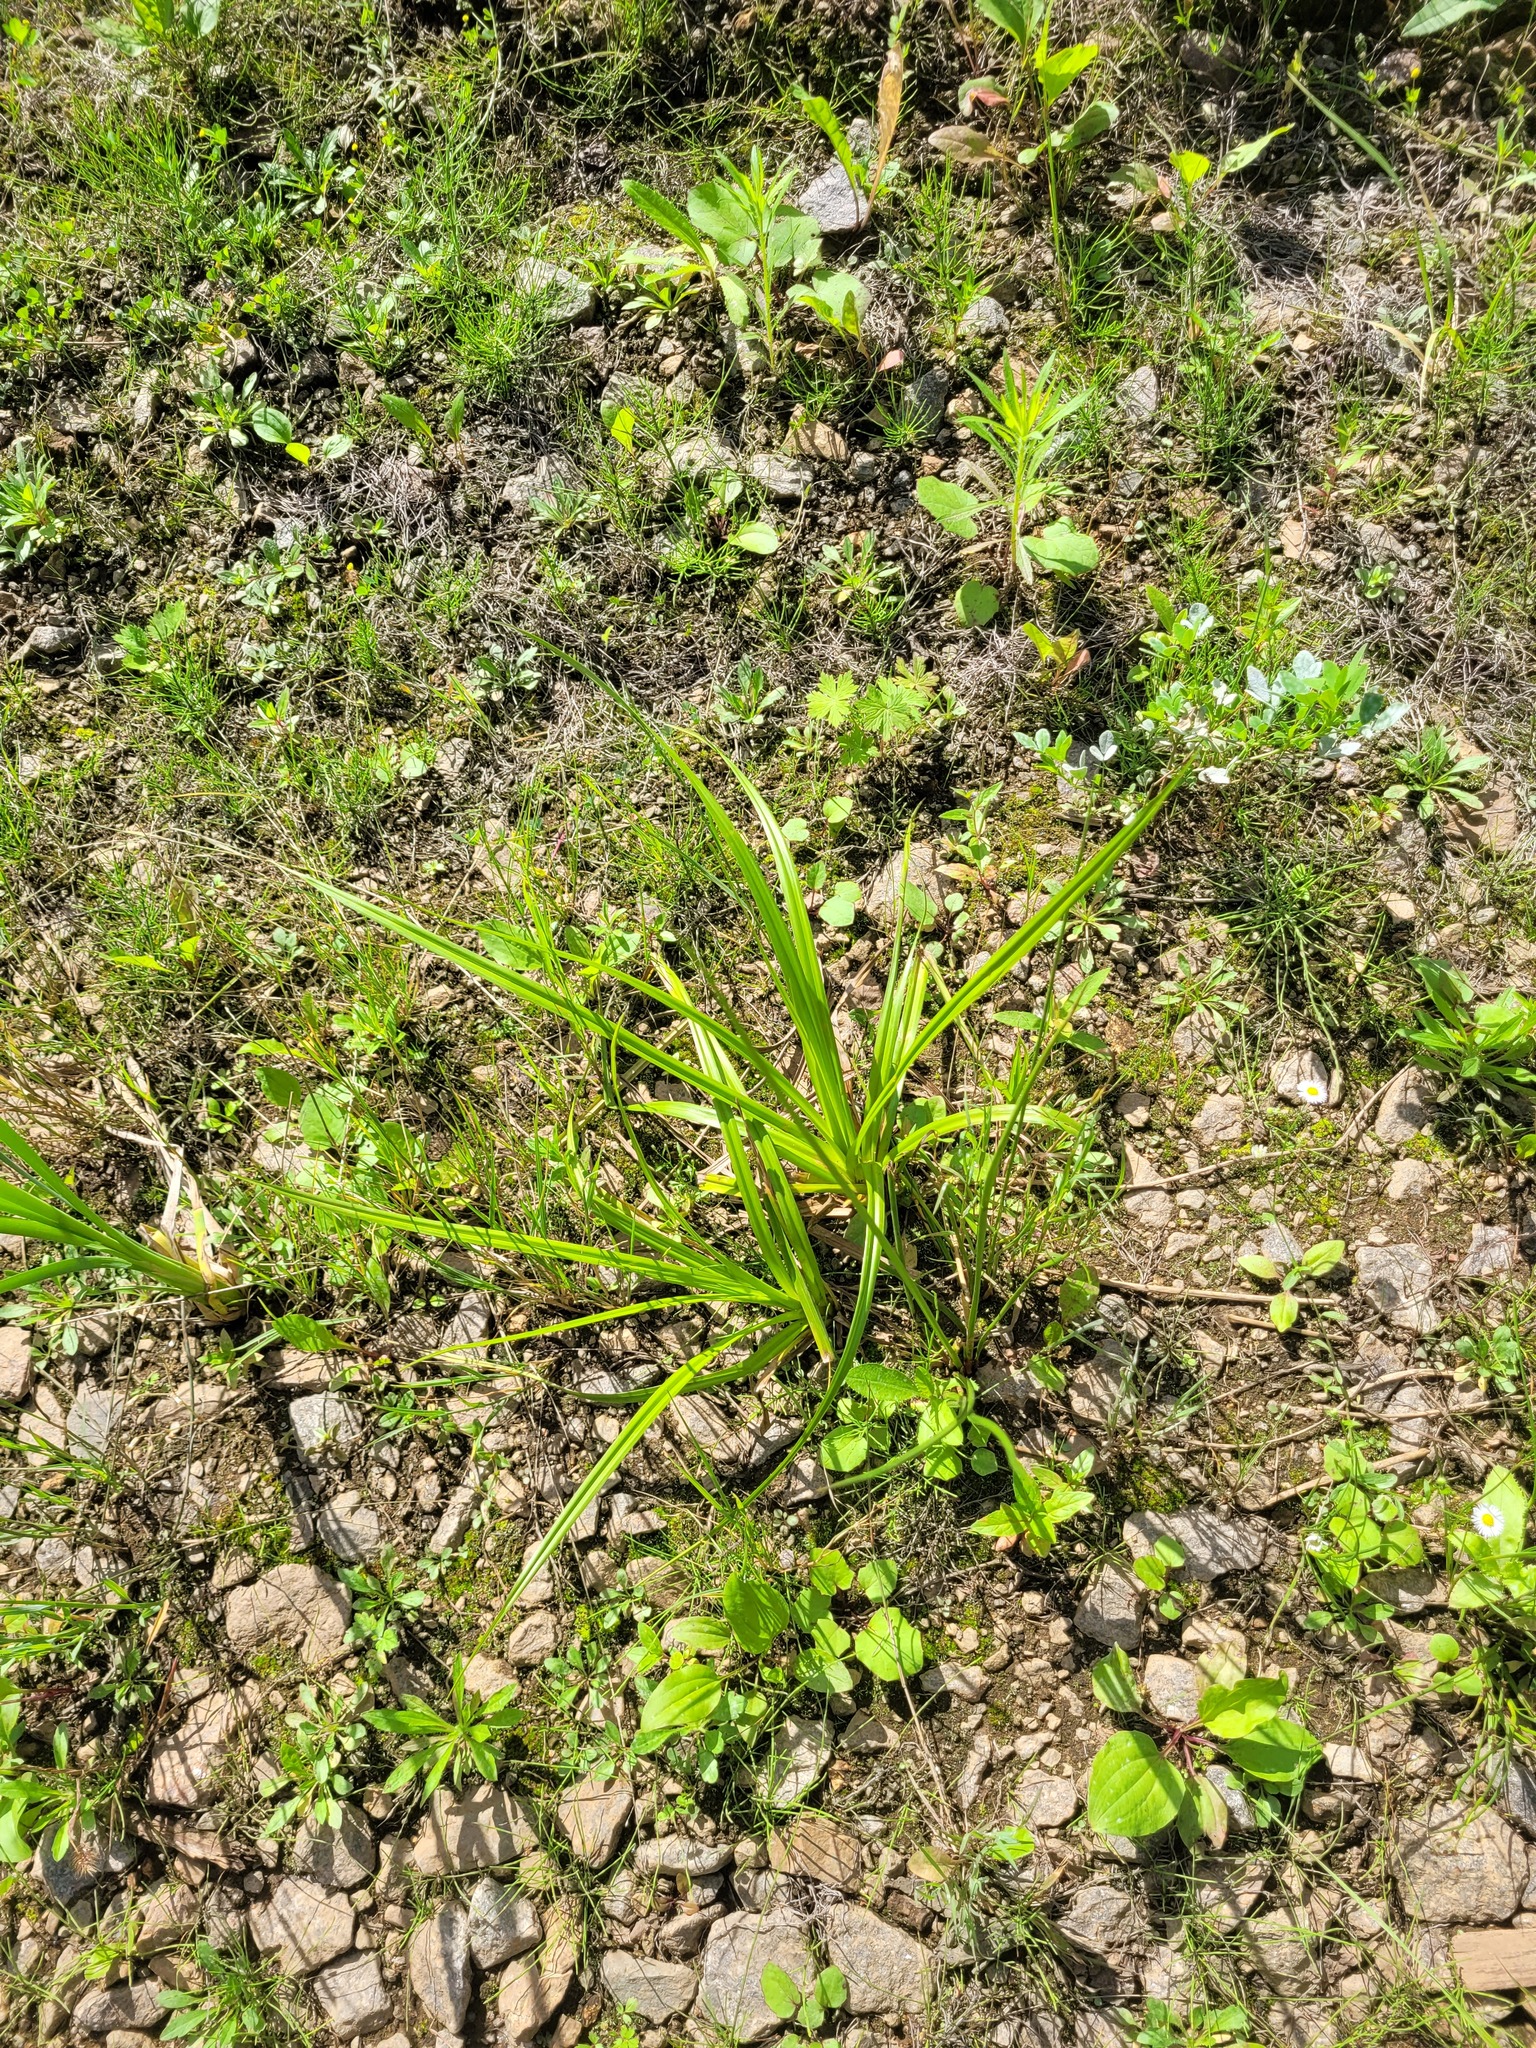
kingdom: Plantae
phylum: Tracheophyta
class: Liliopsida
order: Poales
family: Cyperaceae
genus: Scirpus
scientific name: Scirpus sylvaticus
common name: Wood club-rush
